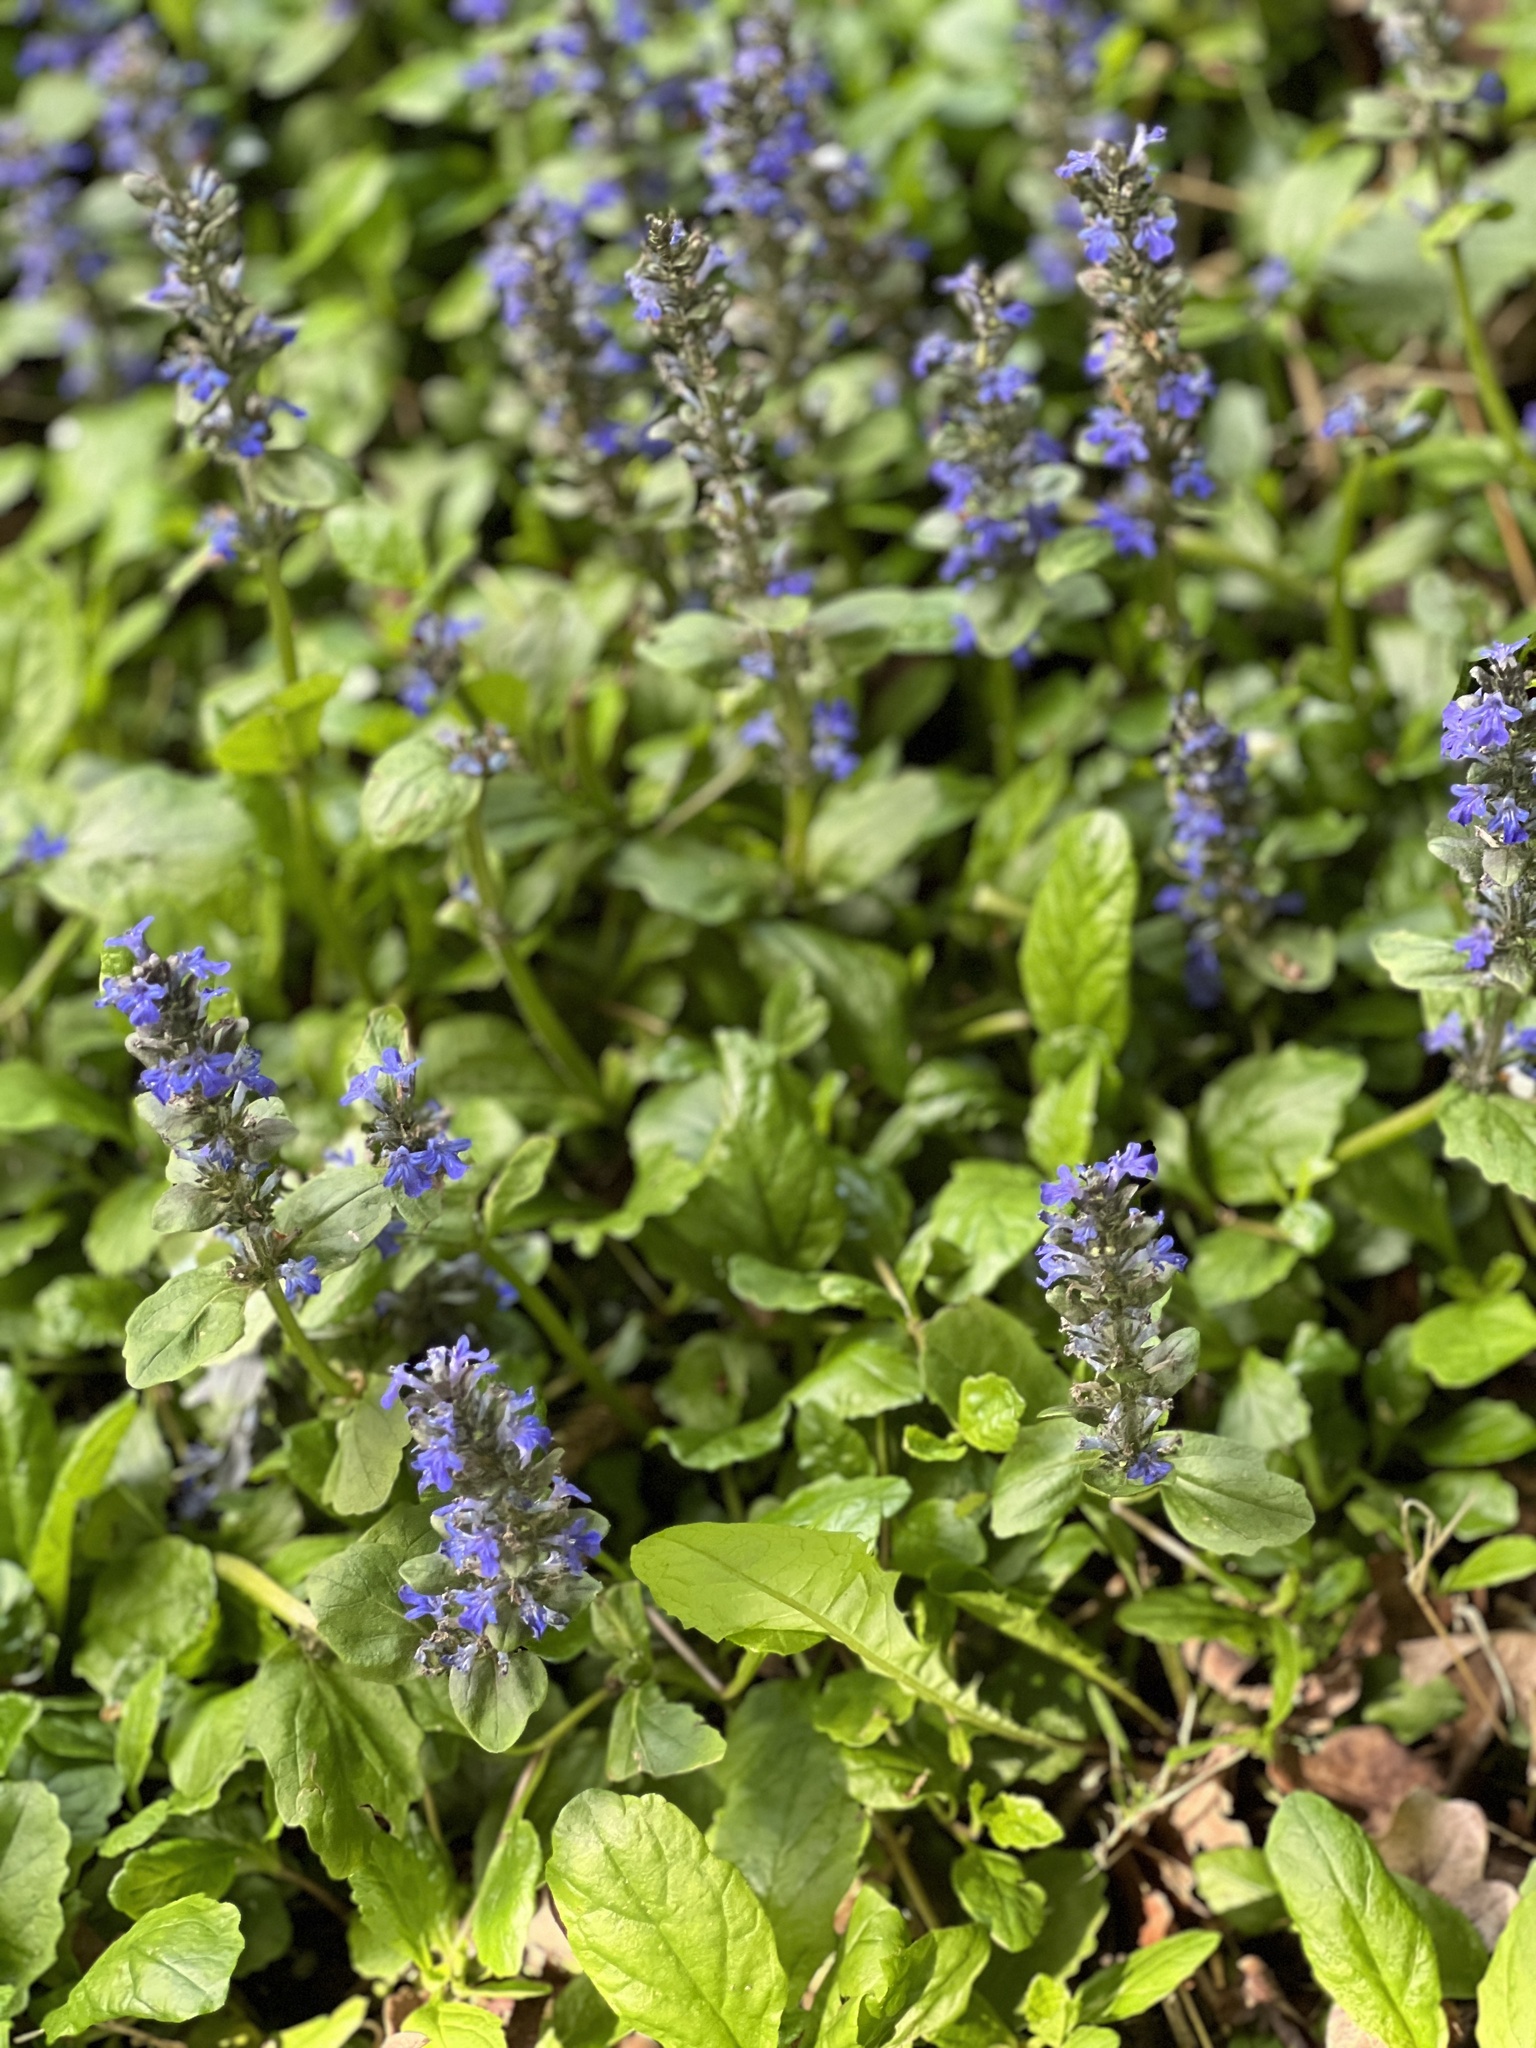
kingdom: Plantae
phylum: Tracheophyta
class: Magnoliopsida
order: Lamiales
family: Lamiaceae
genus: Ajuga
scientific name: Ajuga reptans
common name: Bugle
